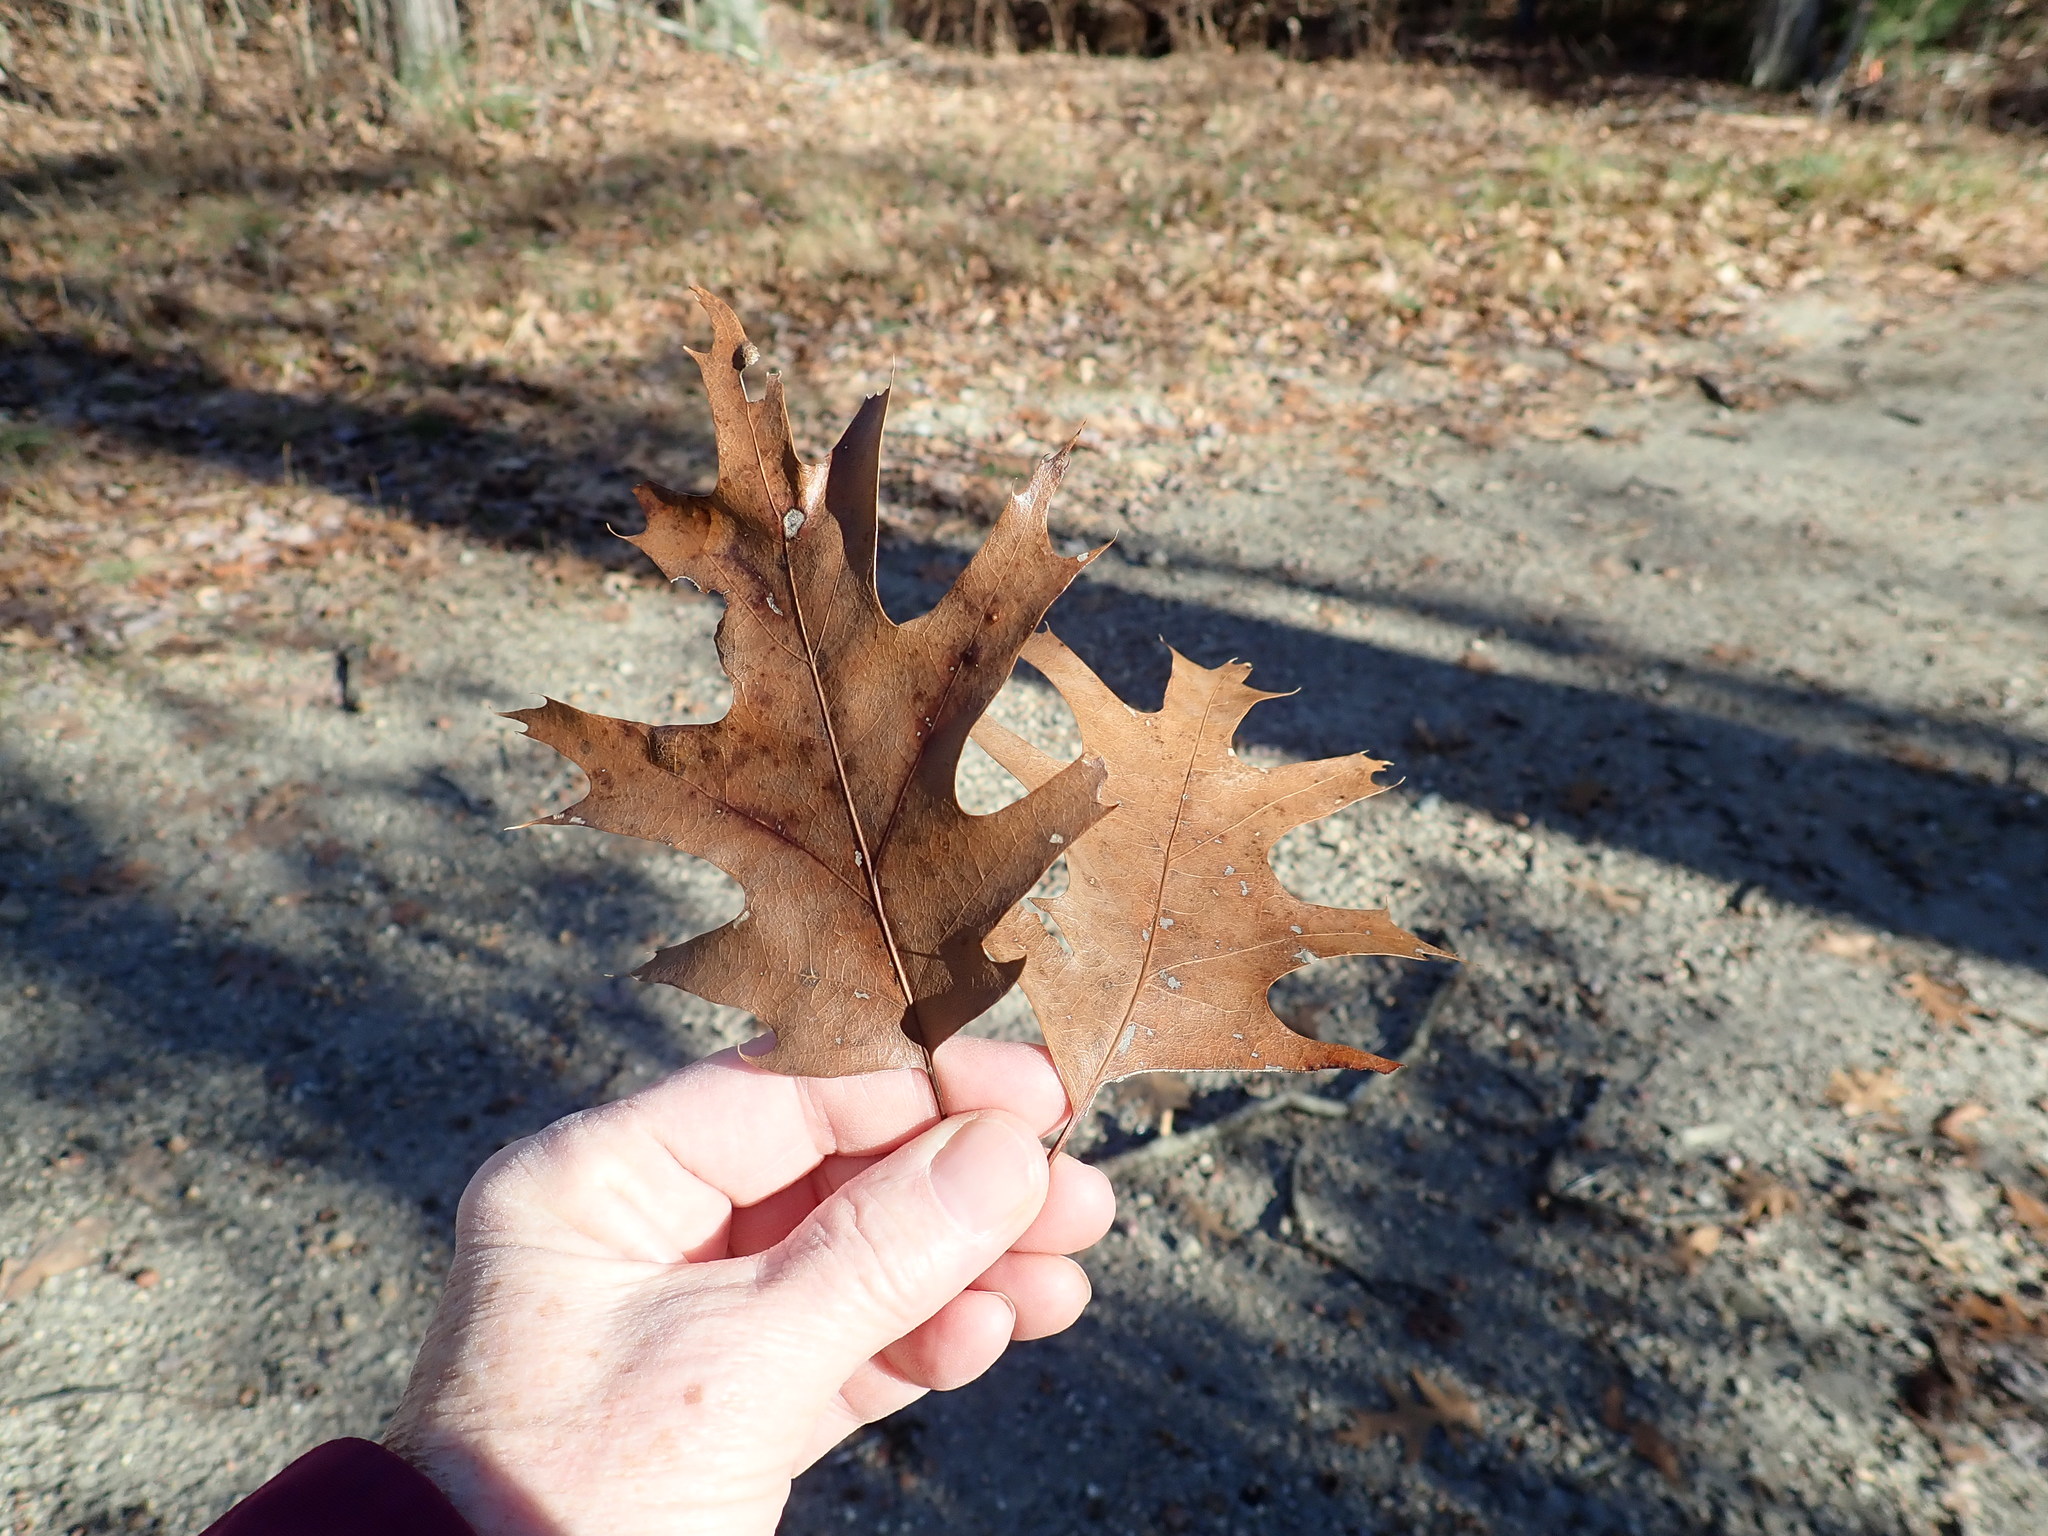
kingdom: Plantae
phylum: Tracheophyta
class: Magnoliopsida
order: Fagales
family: Fagaceae
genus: Quercus
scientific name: Quercus rubra
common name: Red oak
